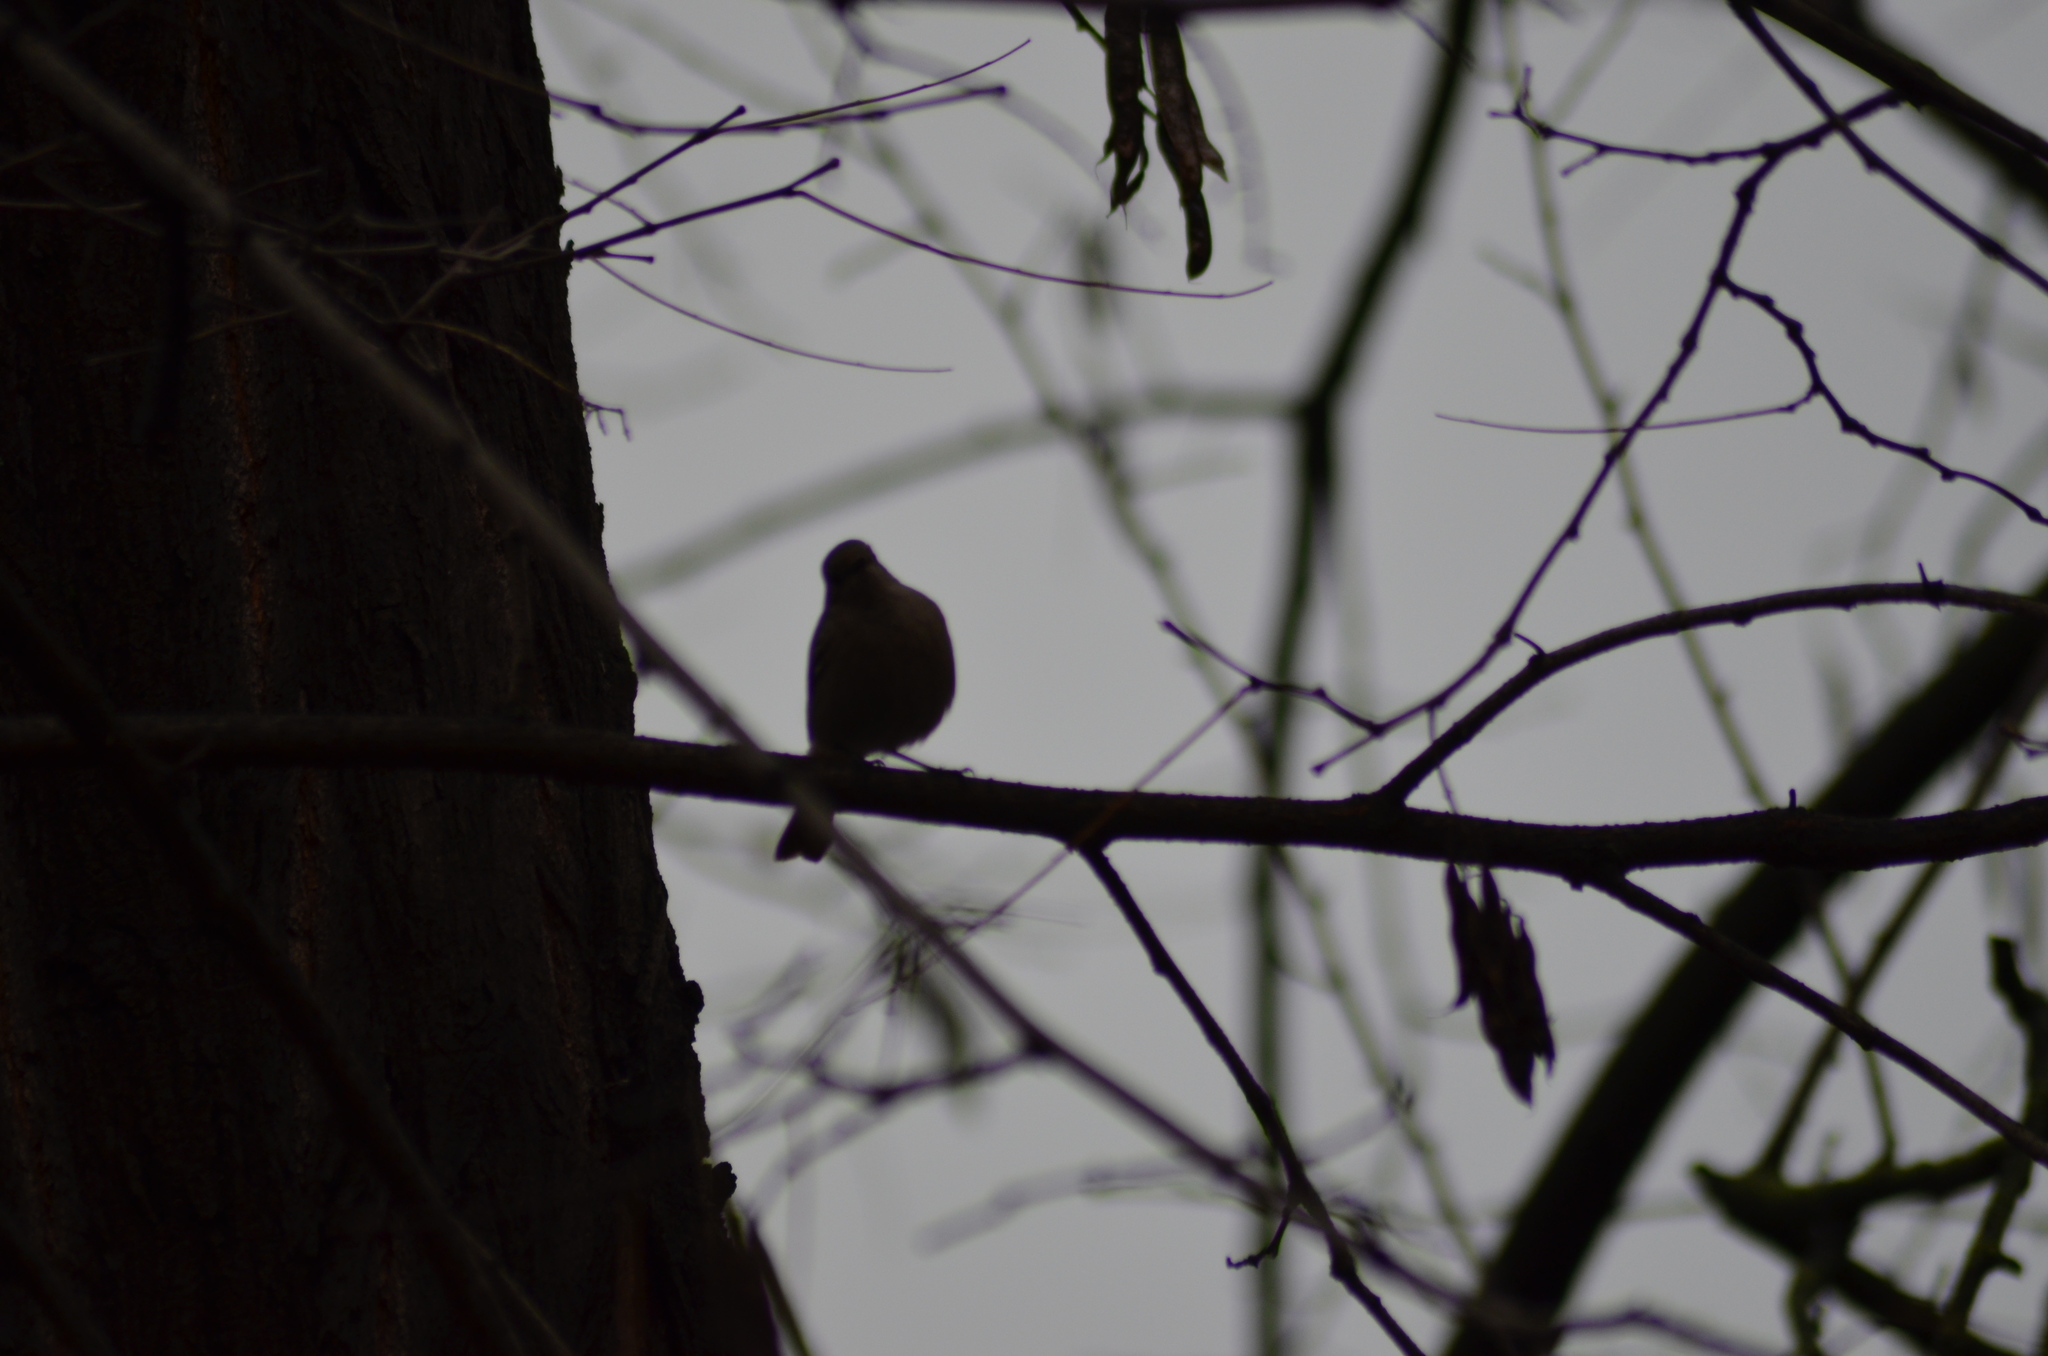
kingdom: Animalia
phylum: Chordata
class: Aves
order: Passeriformes
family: Muscicapidae
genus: Phoenicurus
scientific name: Phoenicurus ochruros
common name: Black redstart
